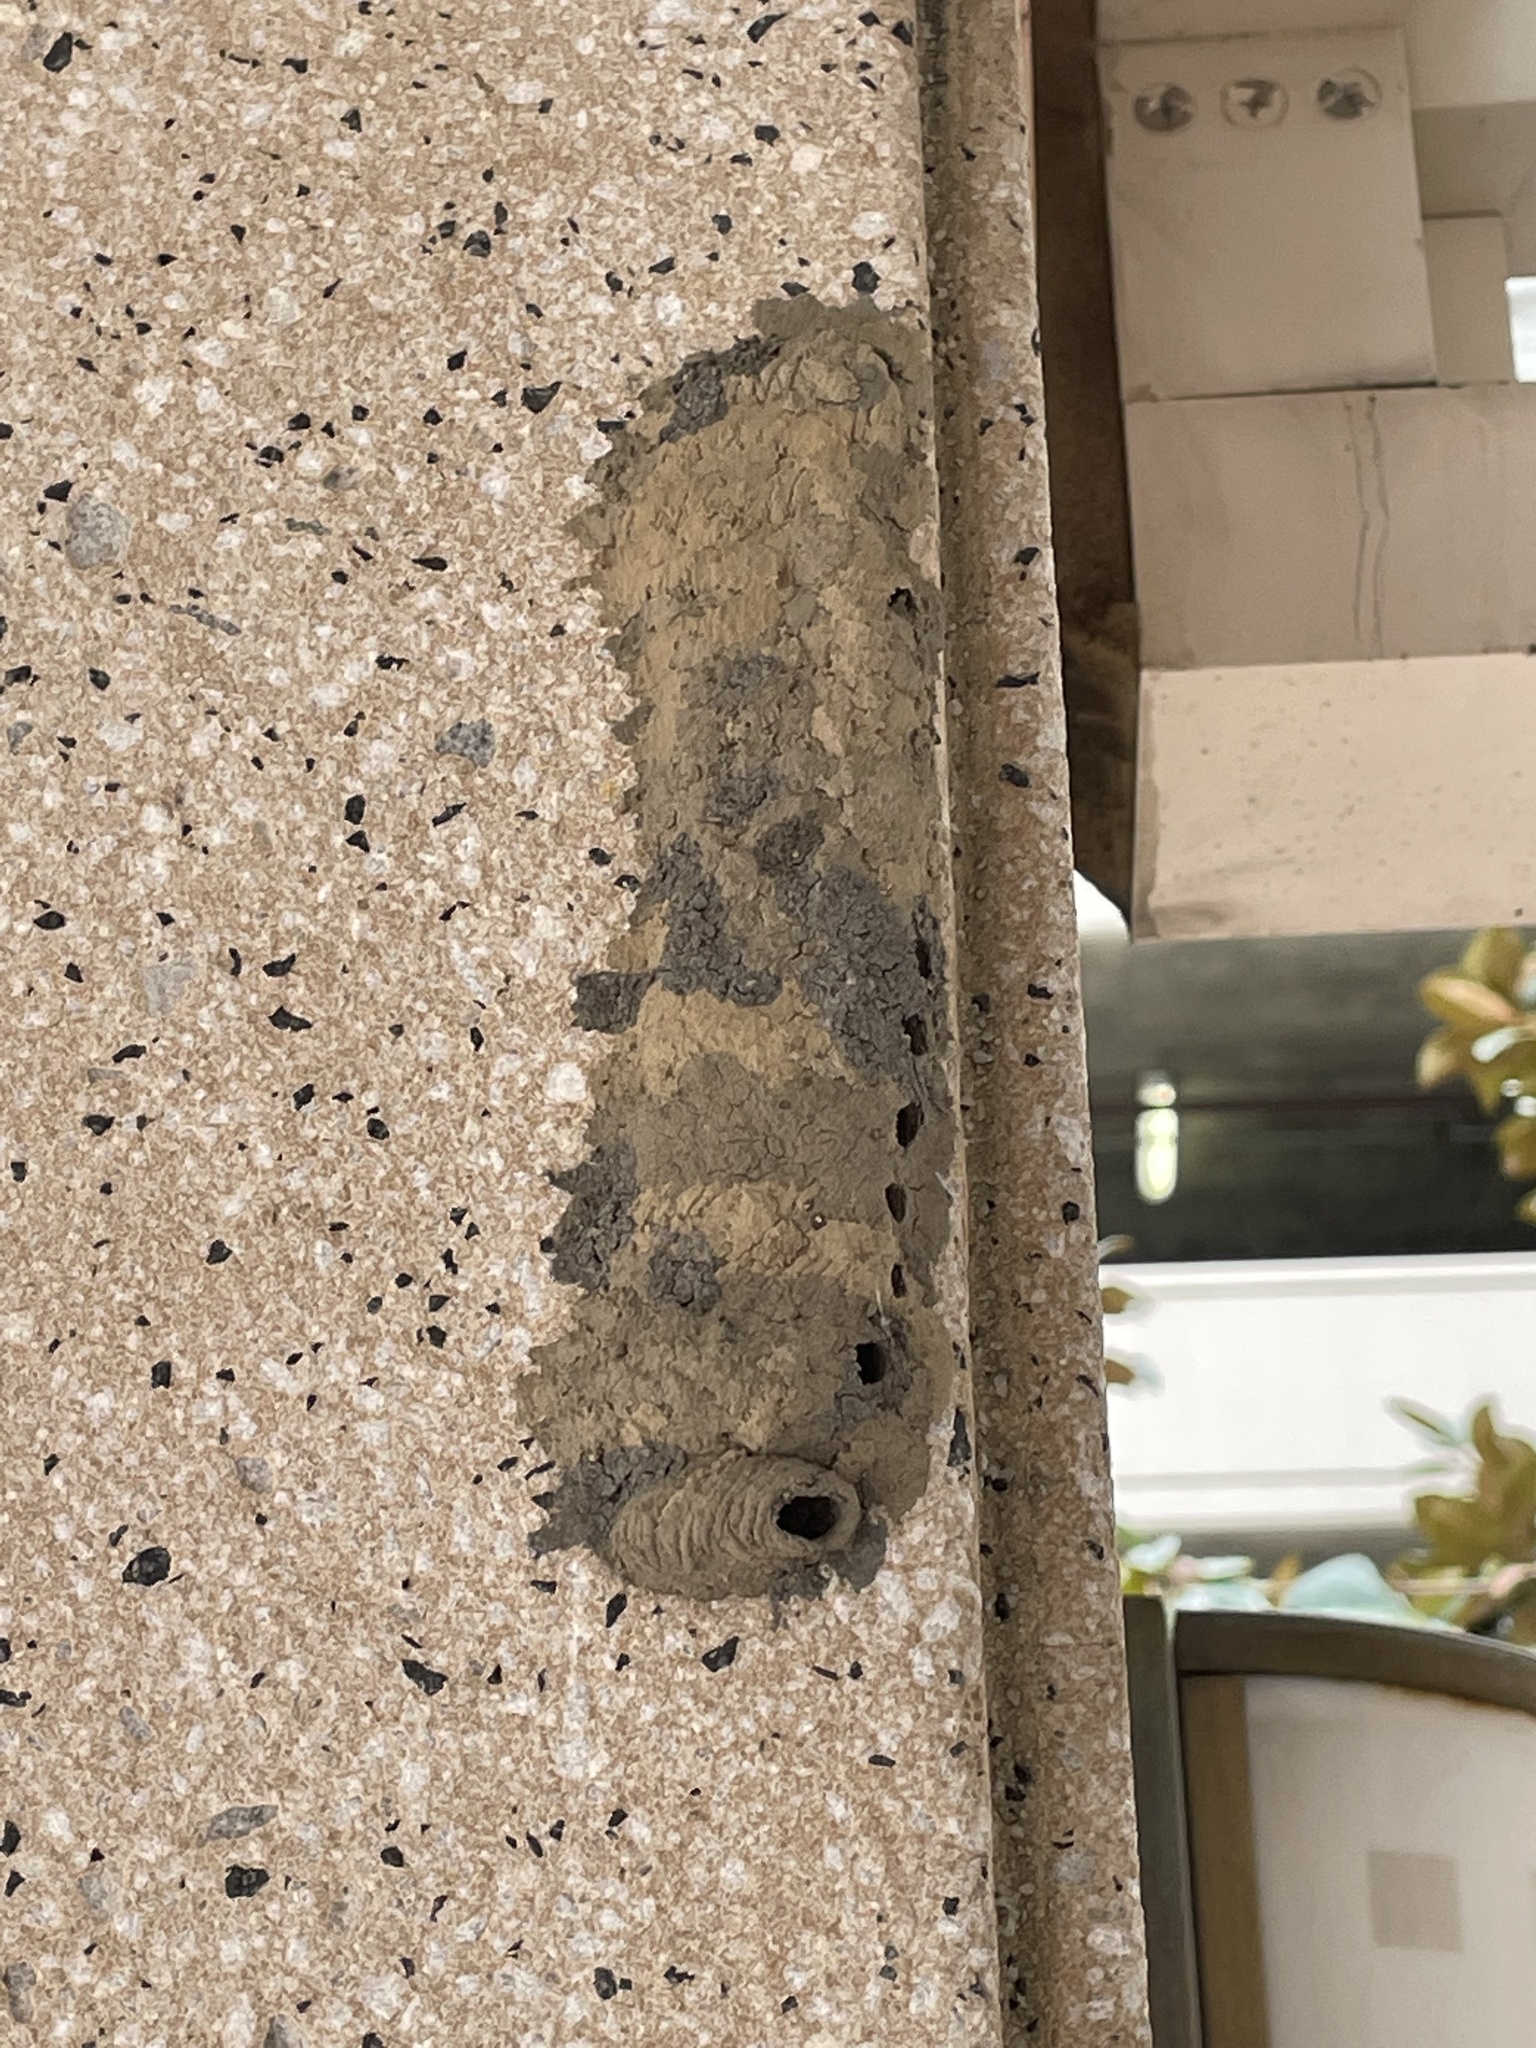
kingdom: Animalia
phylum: Arthropoda
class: Insecta
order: Hymenoptera
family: Sphecidae
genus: Sceliphron
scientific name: Sceliphron caementarium
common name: Mud dauber
